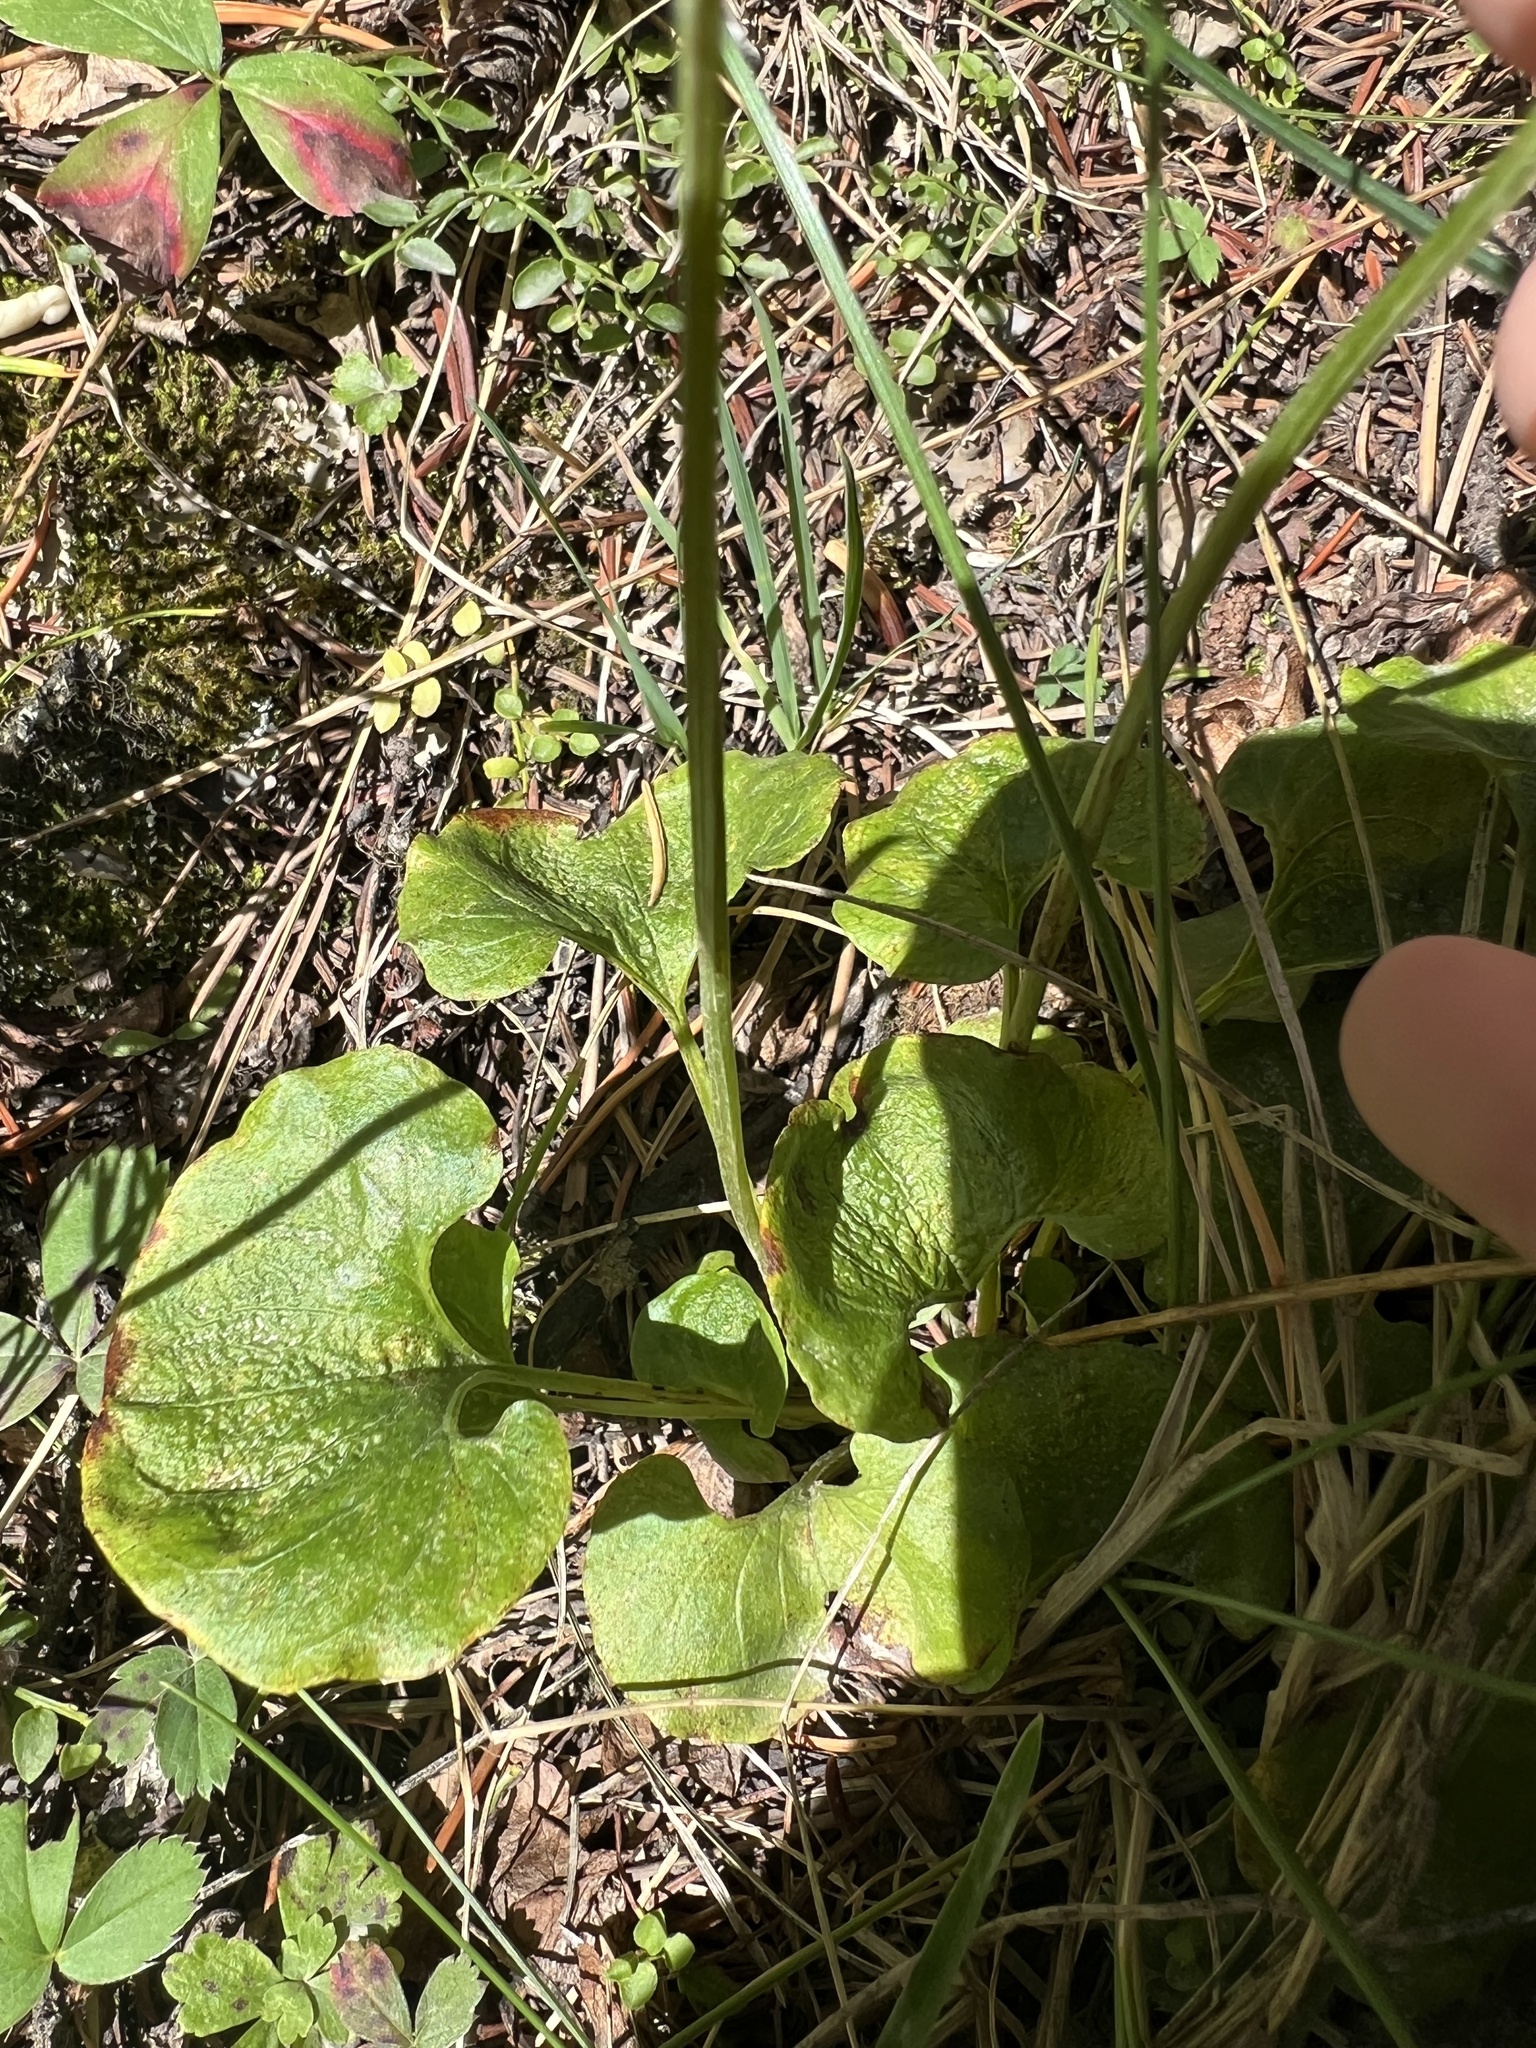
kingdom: Plantae
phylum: Tracheophyta
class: Magnoliopsida
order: Celastrales
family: Parnassiaceae
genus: Parnassia
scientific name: Parnassia fimbriata
